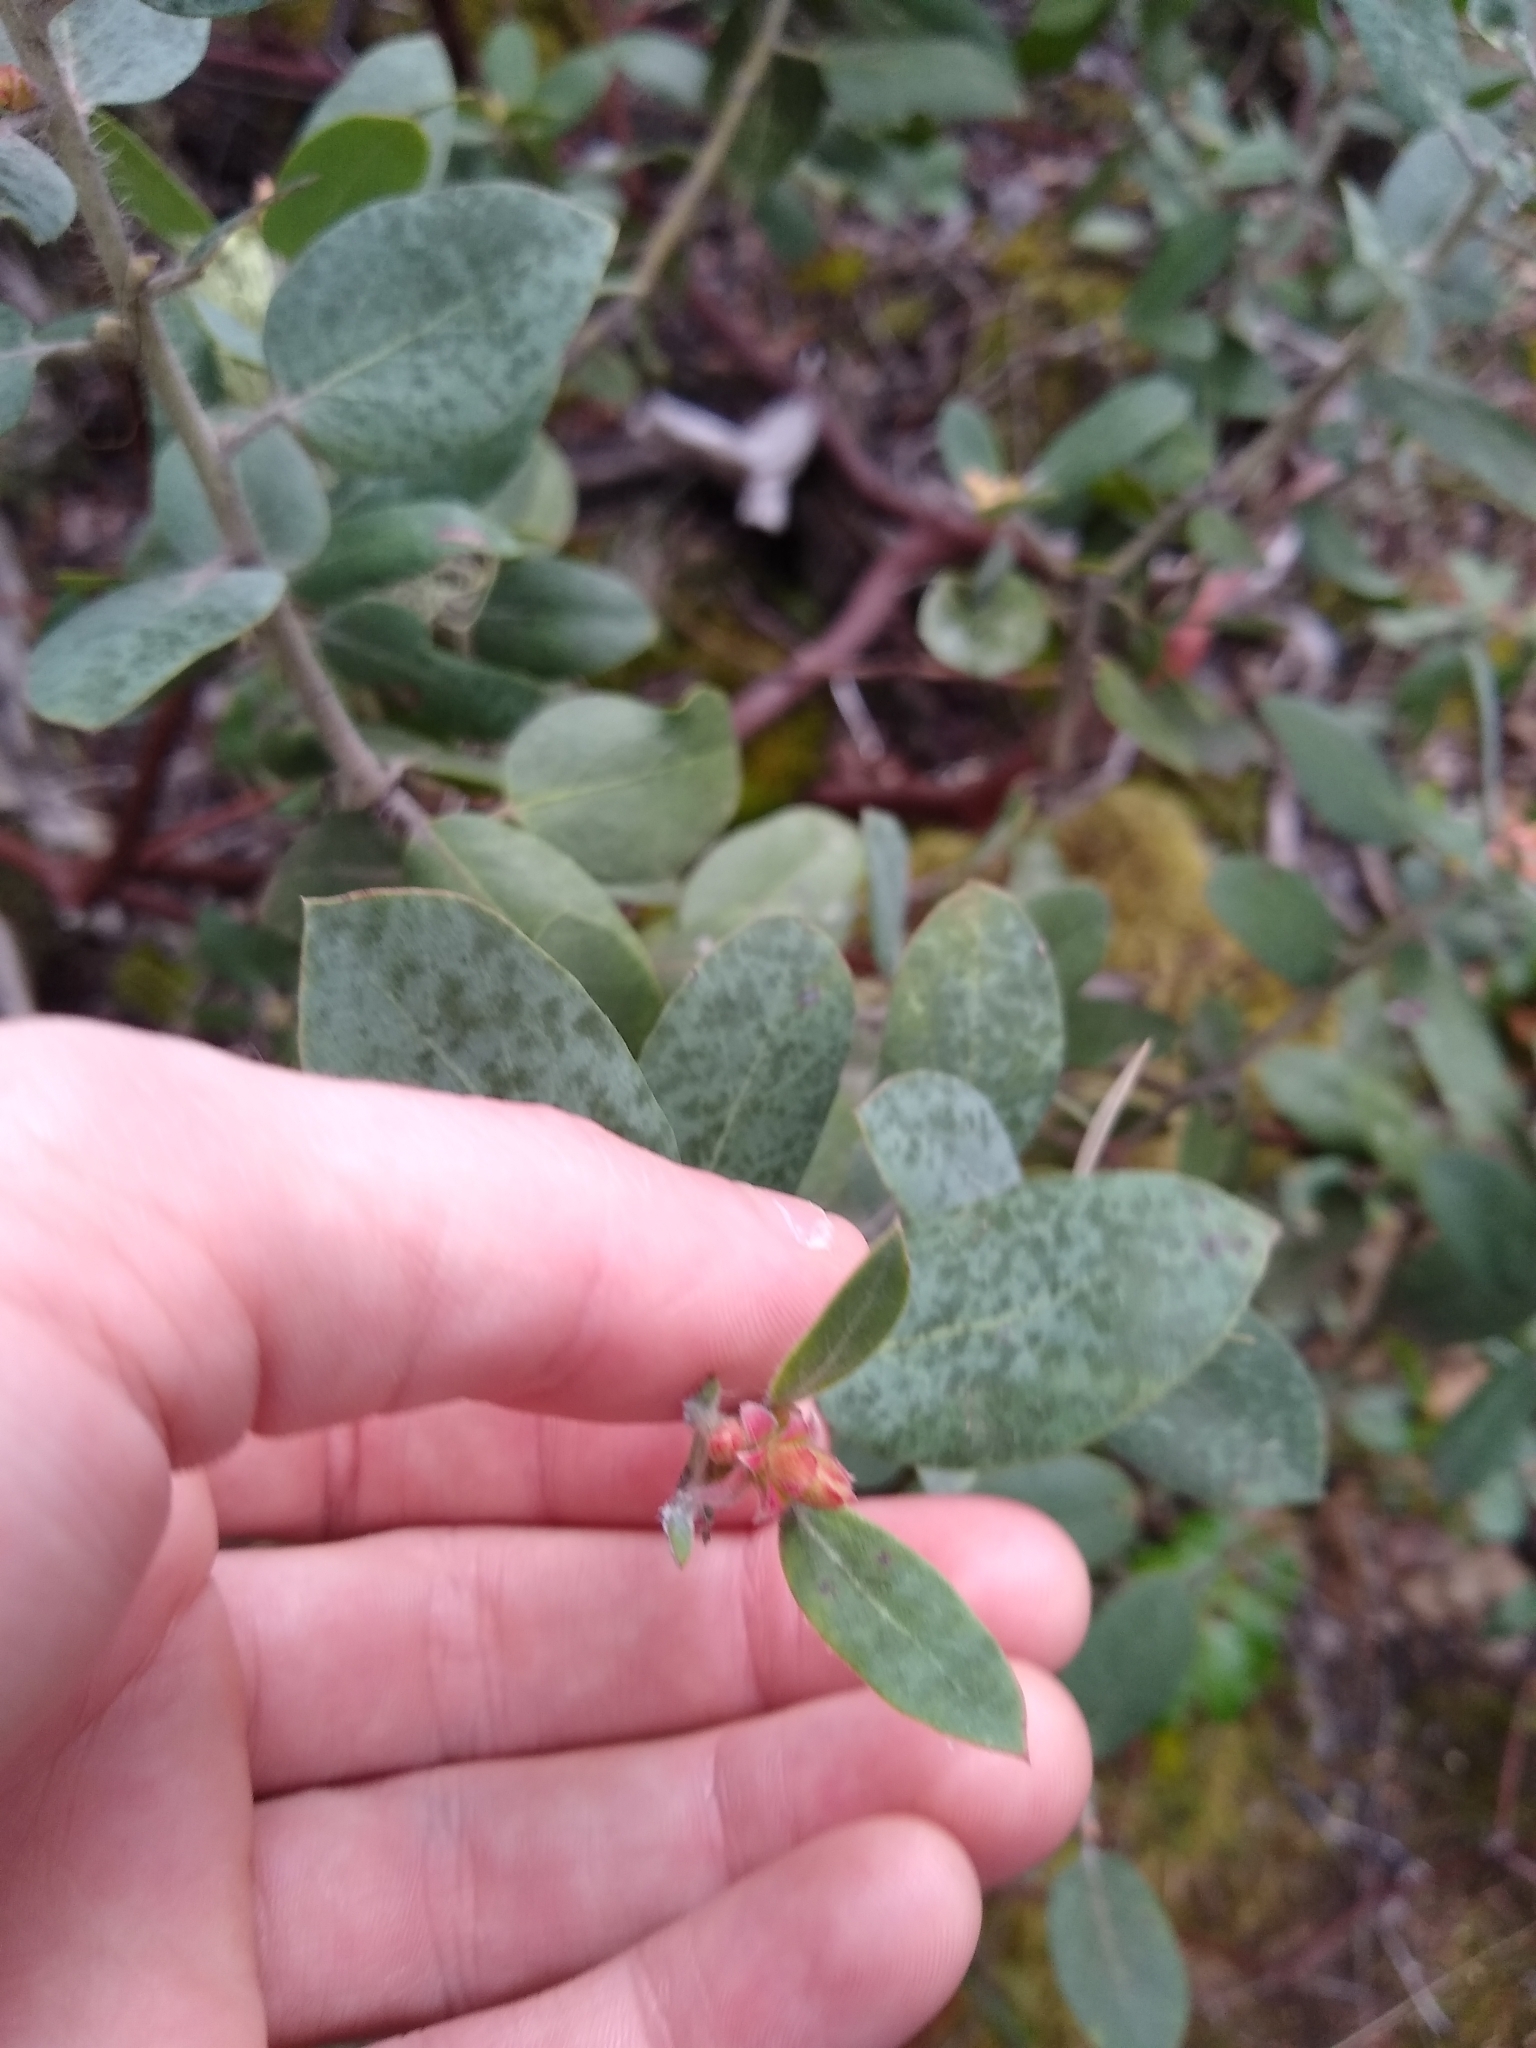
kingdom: Plantae
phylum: Tracheophyta
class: Magnoliopsida
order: Ericales
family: Ericaceae
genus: Arctostaphylos
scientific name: Arctostaphylos columbiana
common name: Bristly bearberry
